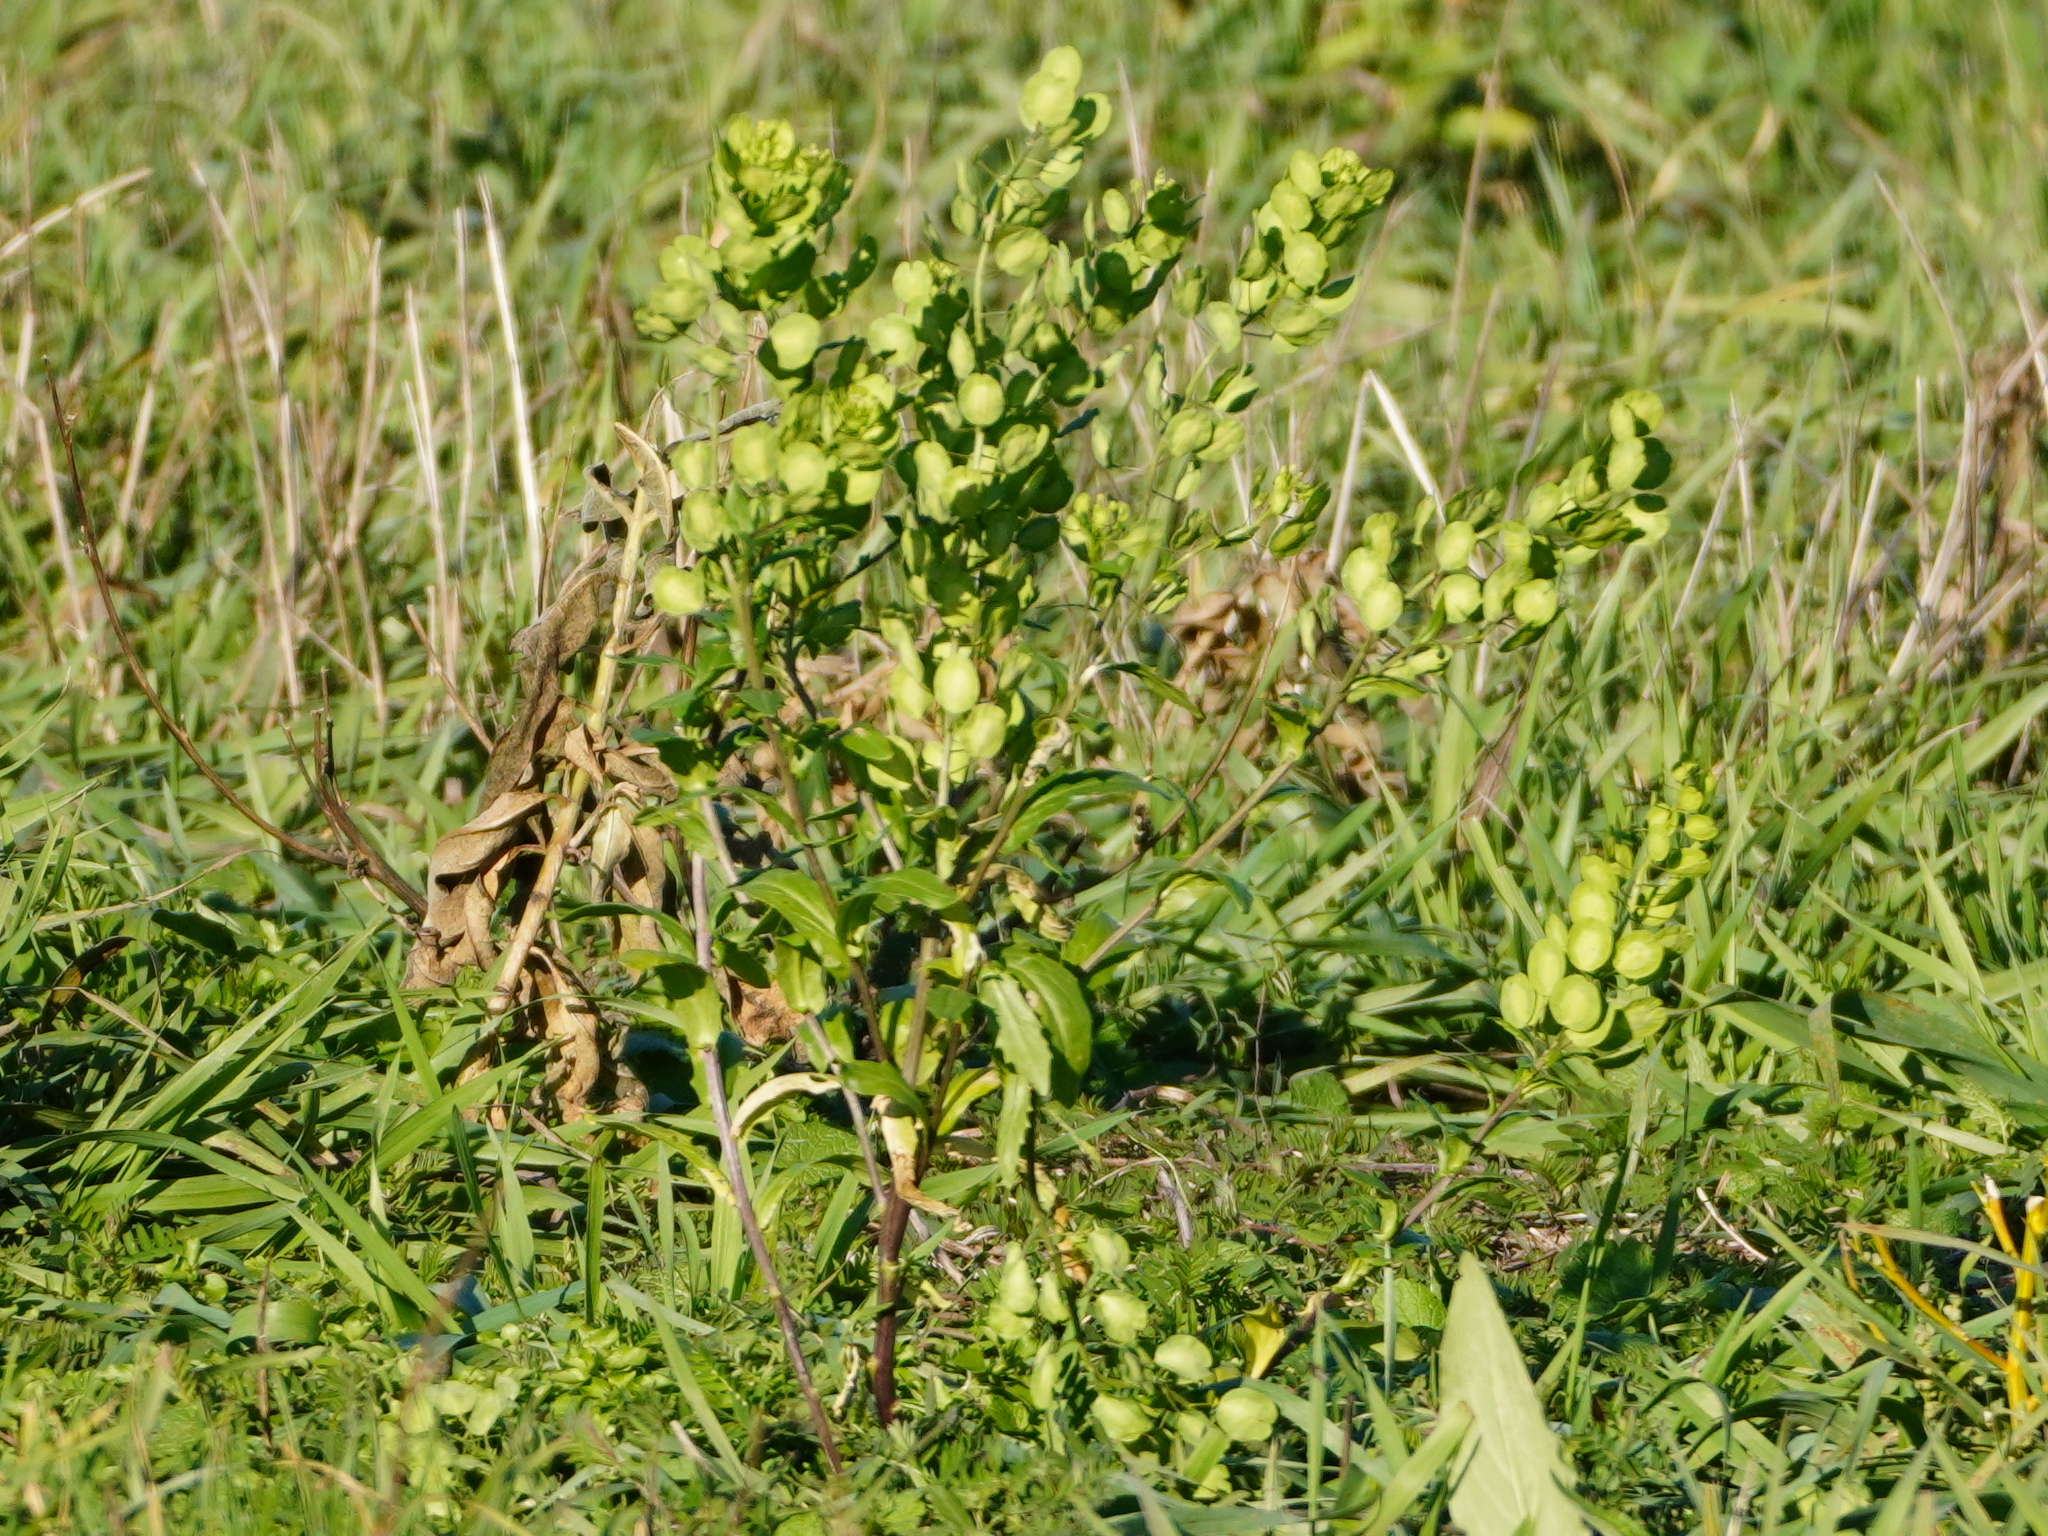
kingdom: Plantae
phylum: Tracheophyta
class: Magnoliopsida
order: Brassicales
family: Brassicaceae
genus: Thlaspi
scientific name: Thlaspi arvense
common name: Field pennycress
